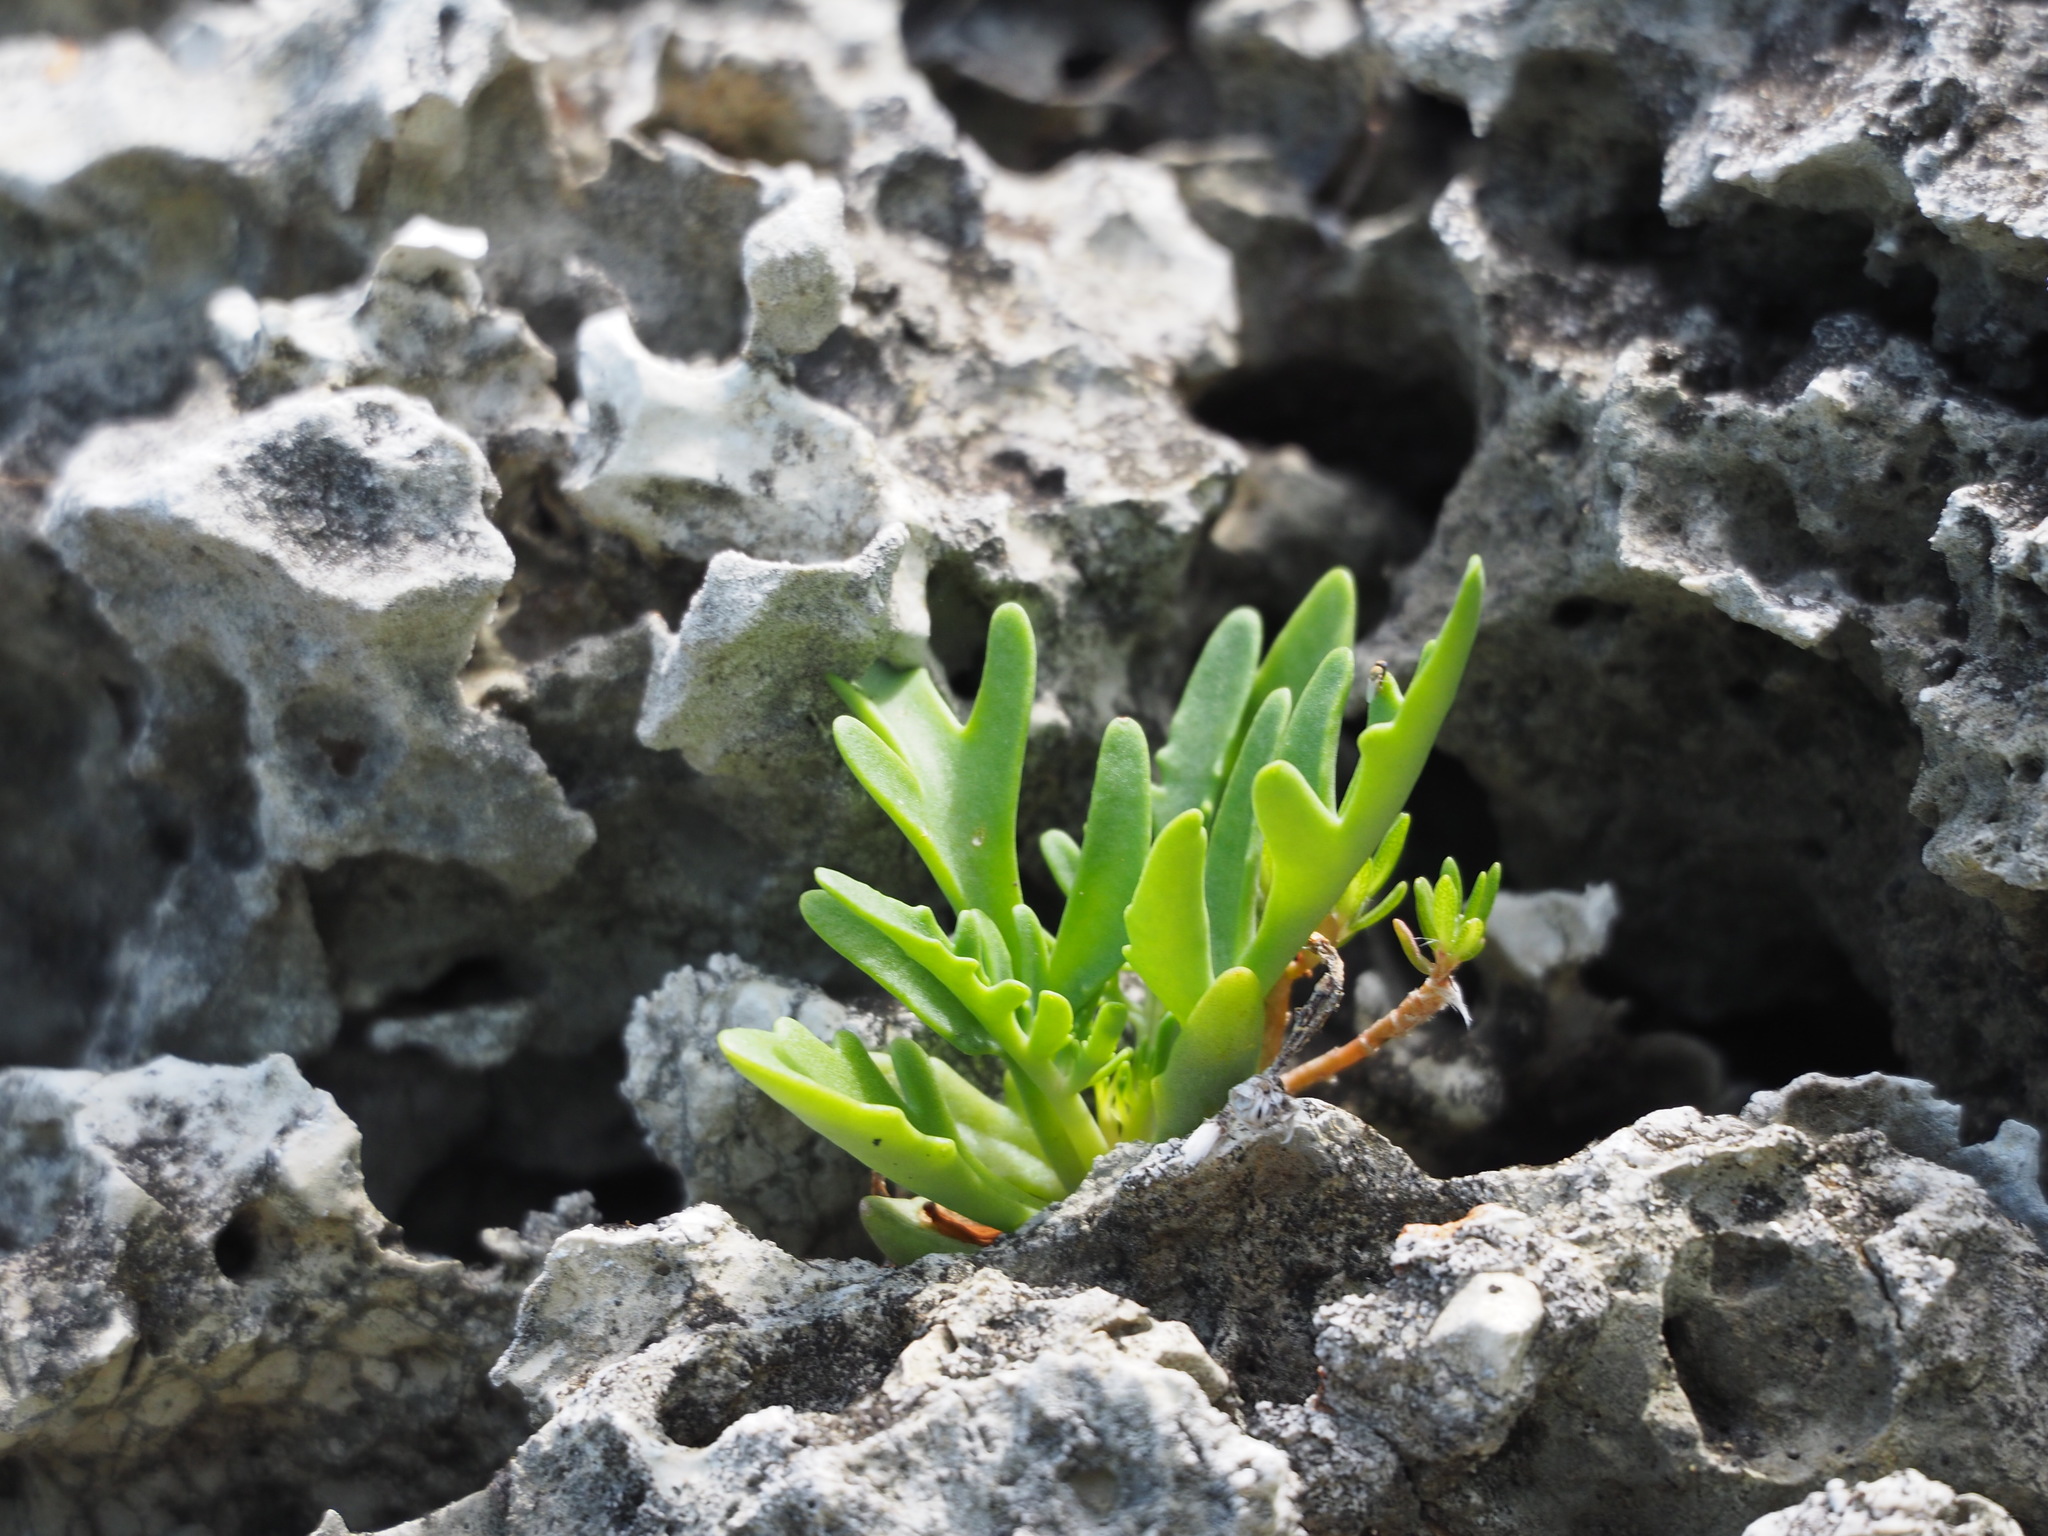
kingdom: Plantae
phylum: Tracheophyta
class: Magnoliopsida
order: Saxifragales
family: Crassulaceae
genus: Kalanchoe
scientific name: Kalanchoe ceratophylla
